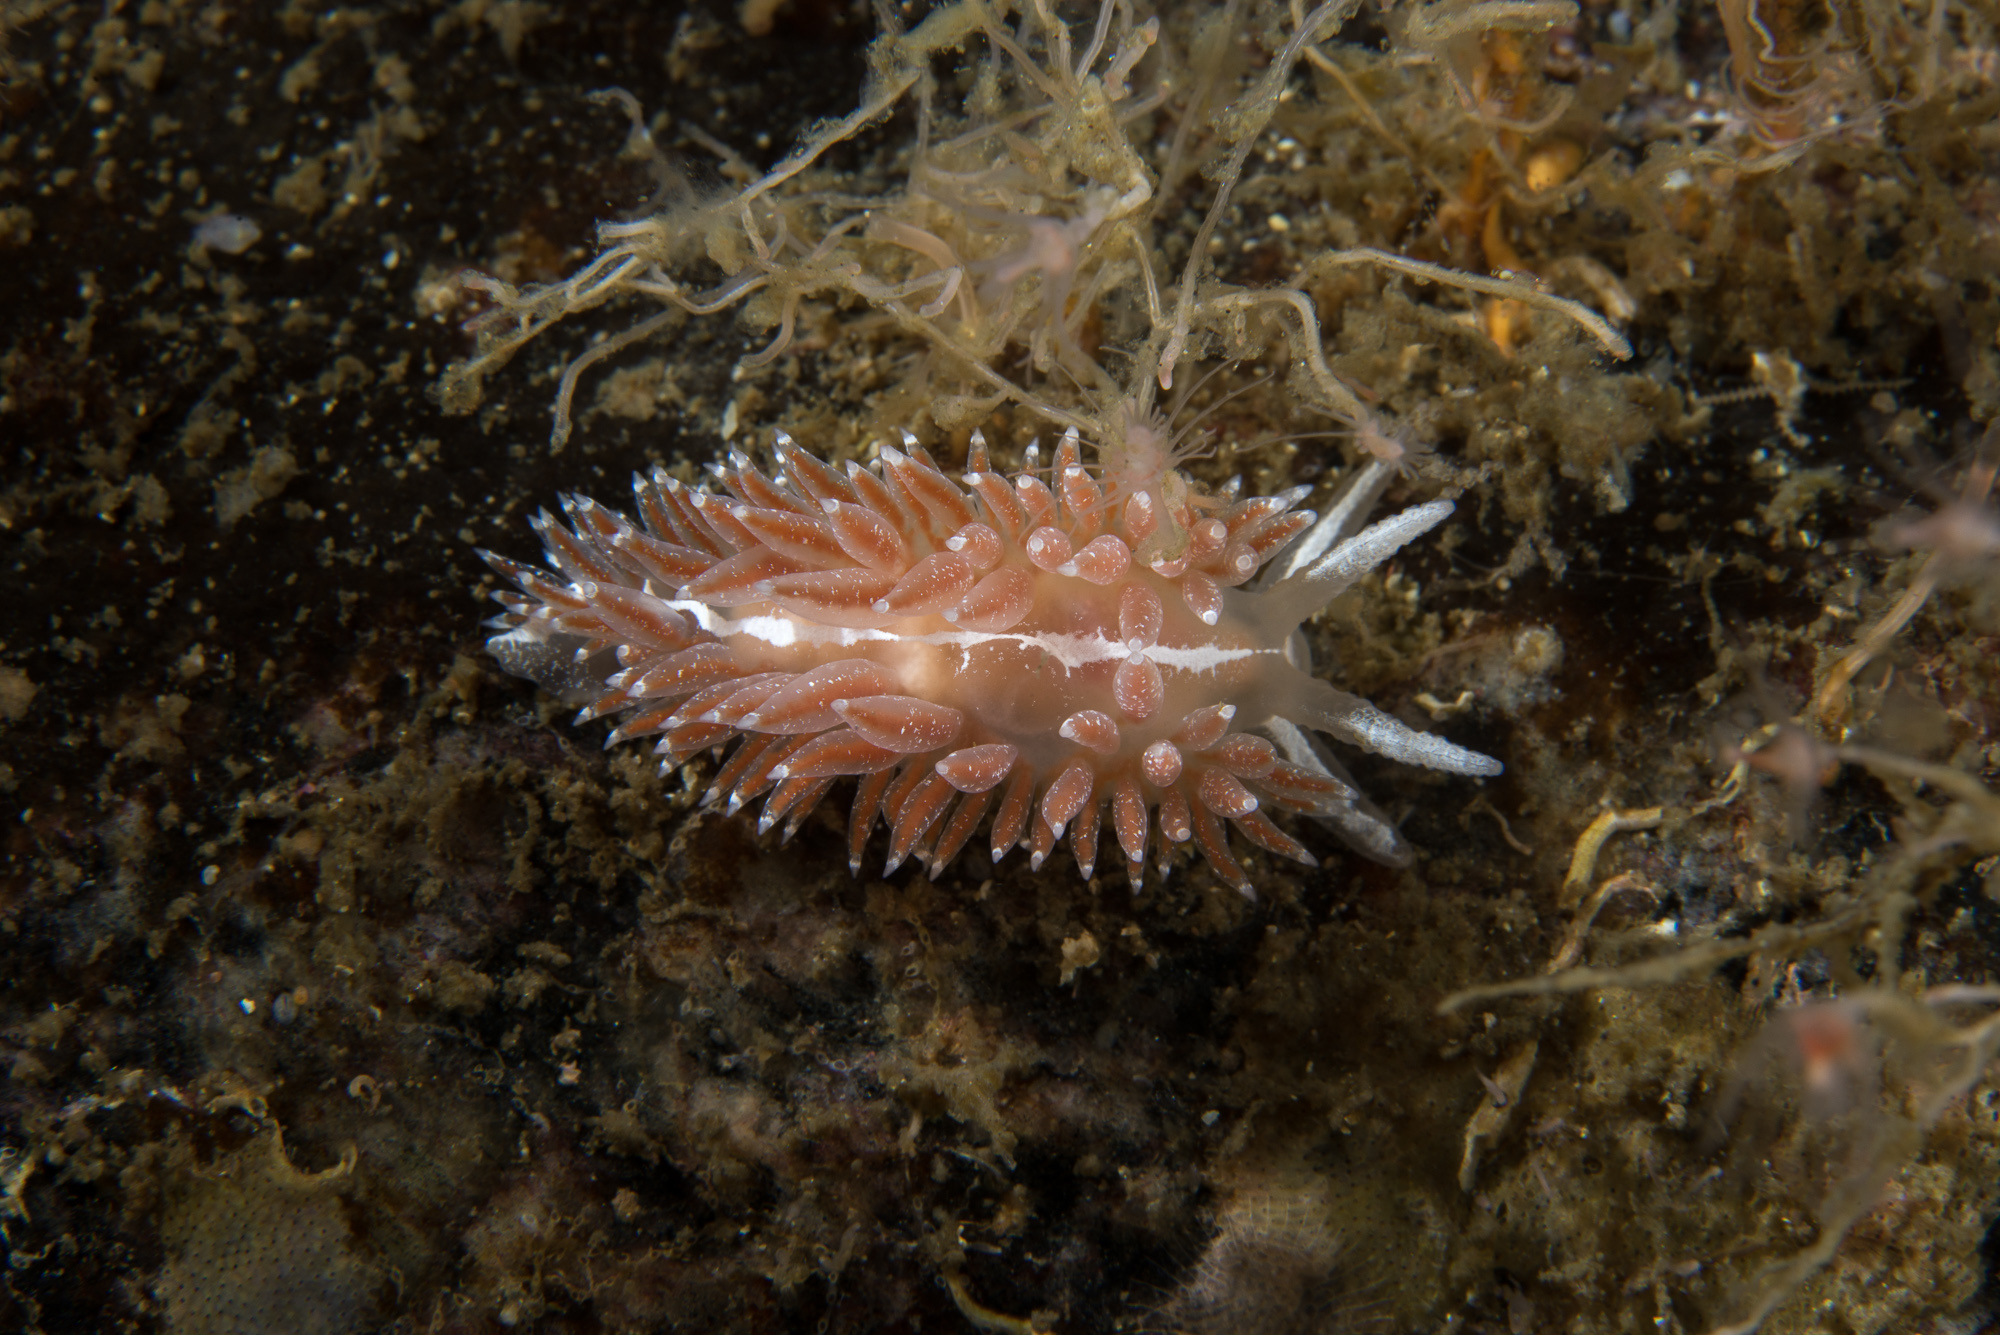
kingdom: Animalia
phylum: Mollusca
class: Gastropoda
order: Nudibranchia
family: Coryphellidae
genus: Coryphella
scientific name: Coryphella orjani
